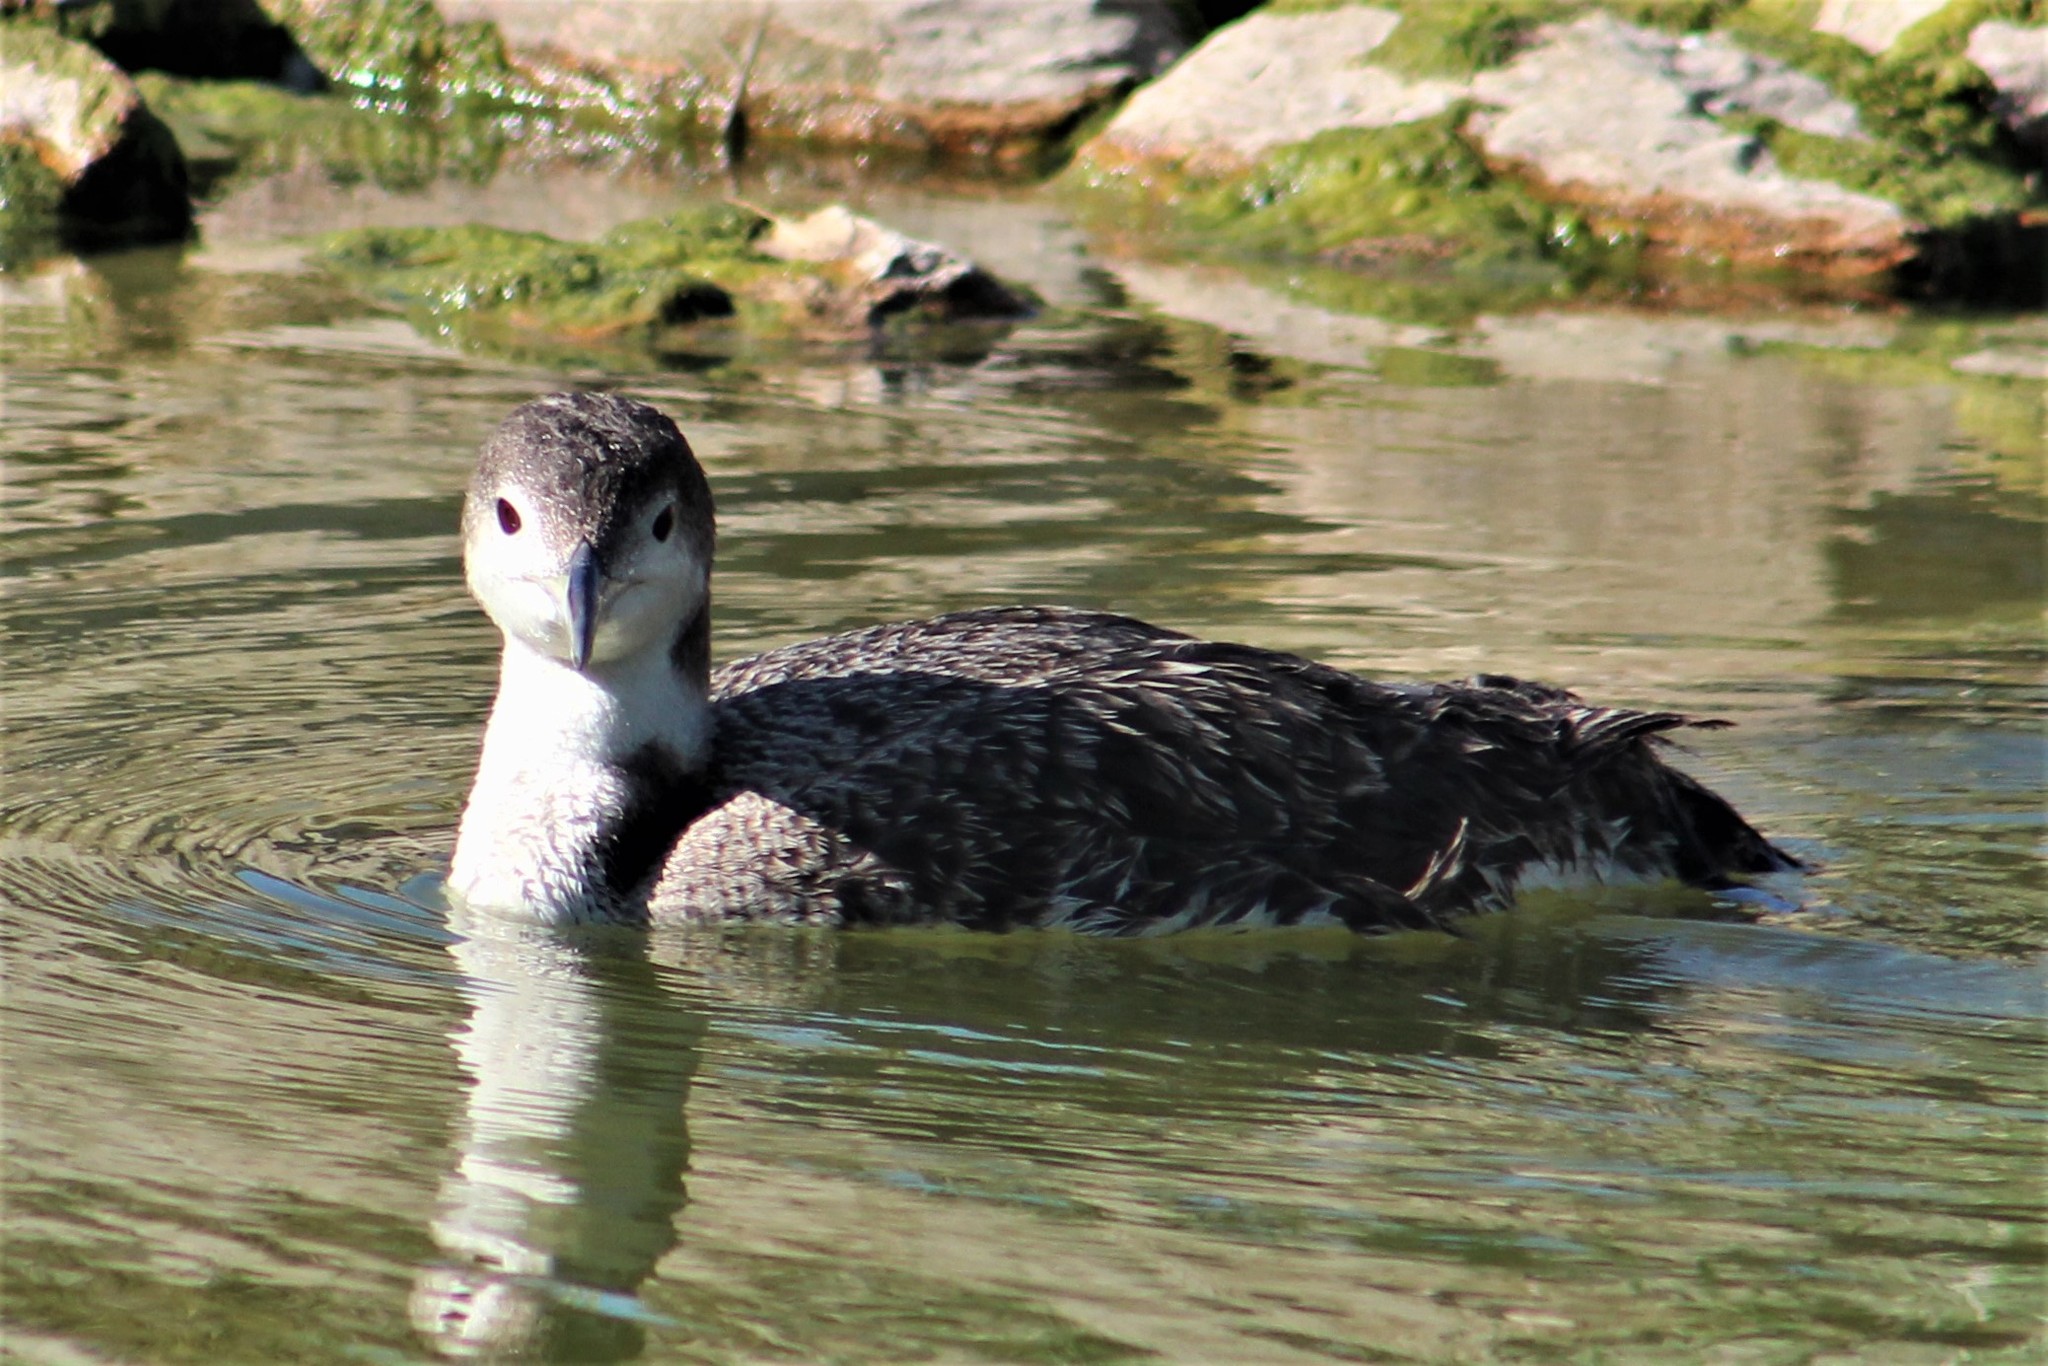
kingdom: Animalia
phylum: Chordata
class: Aves
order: Gaviiformes
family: Gaviidae
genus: Gavia
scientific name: Gavia immer
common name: Common loon
